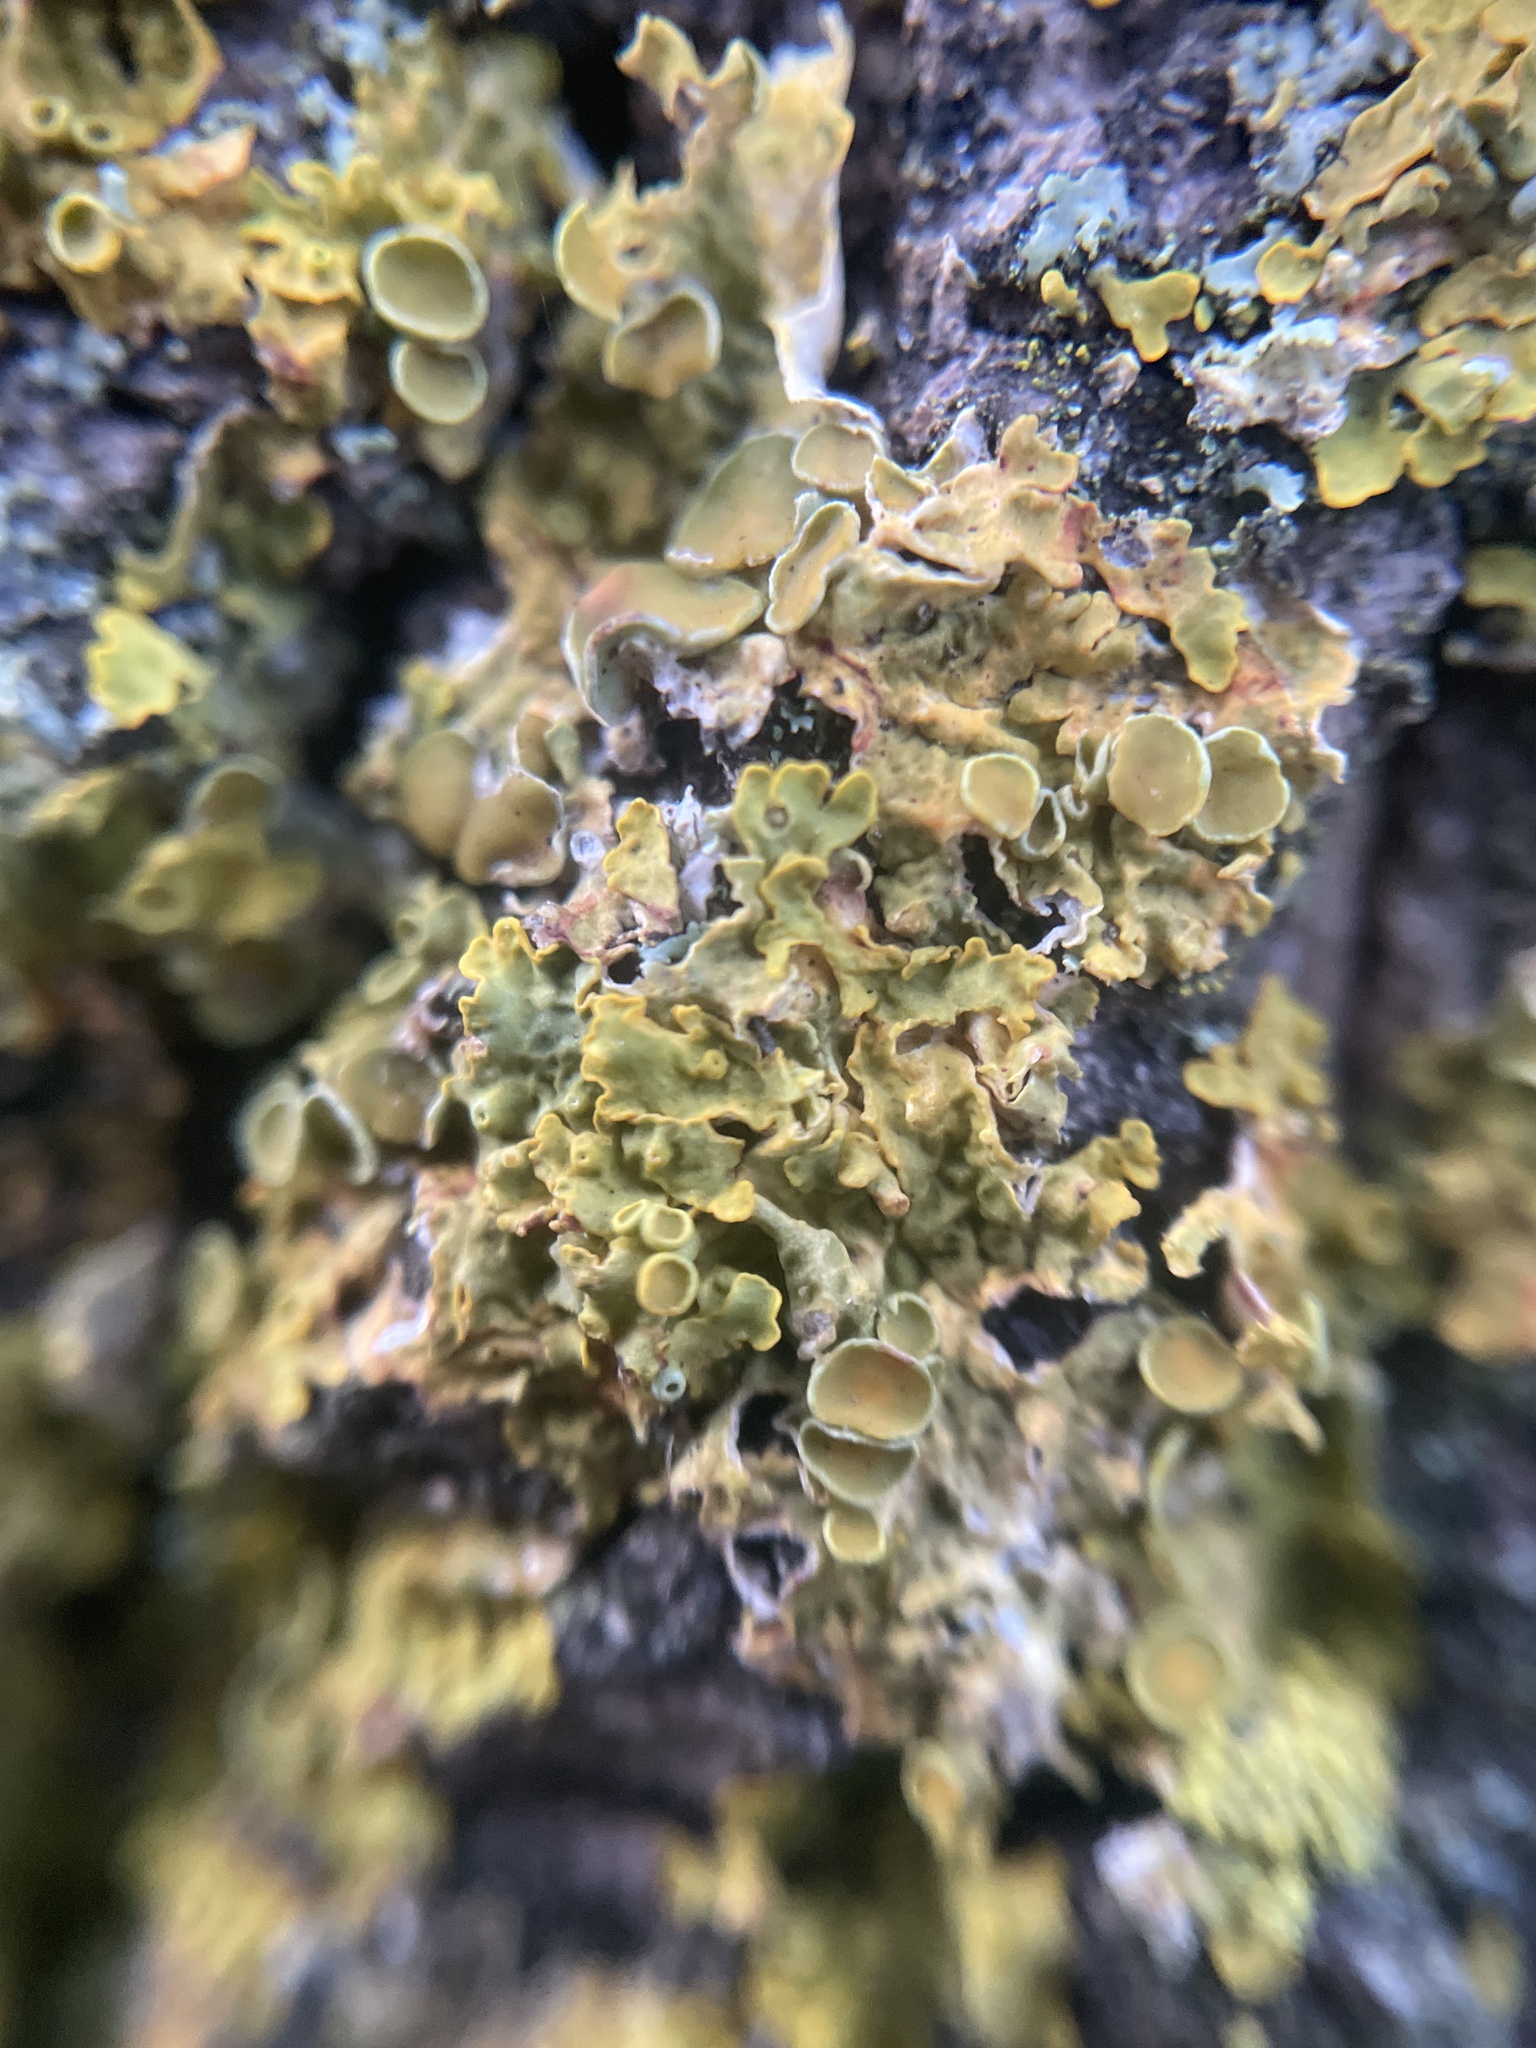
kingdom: Fungi
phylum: Ascomycota
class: Lecanoromycetes
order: Teloschistales
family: Teloschistaceae
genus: Xanthoria
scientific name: Xanthoria parietina
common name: Common orange lichen
